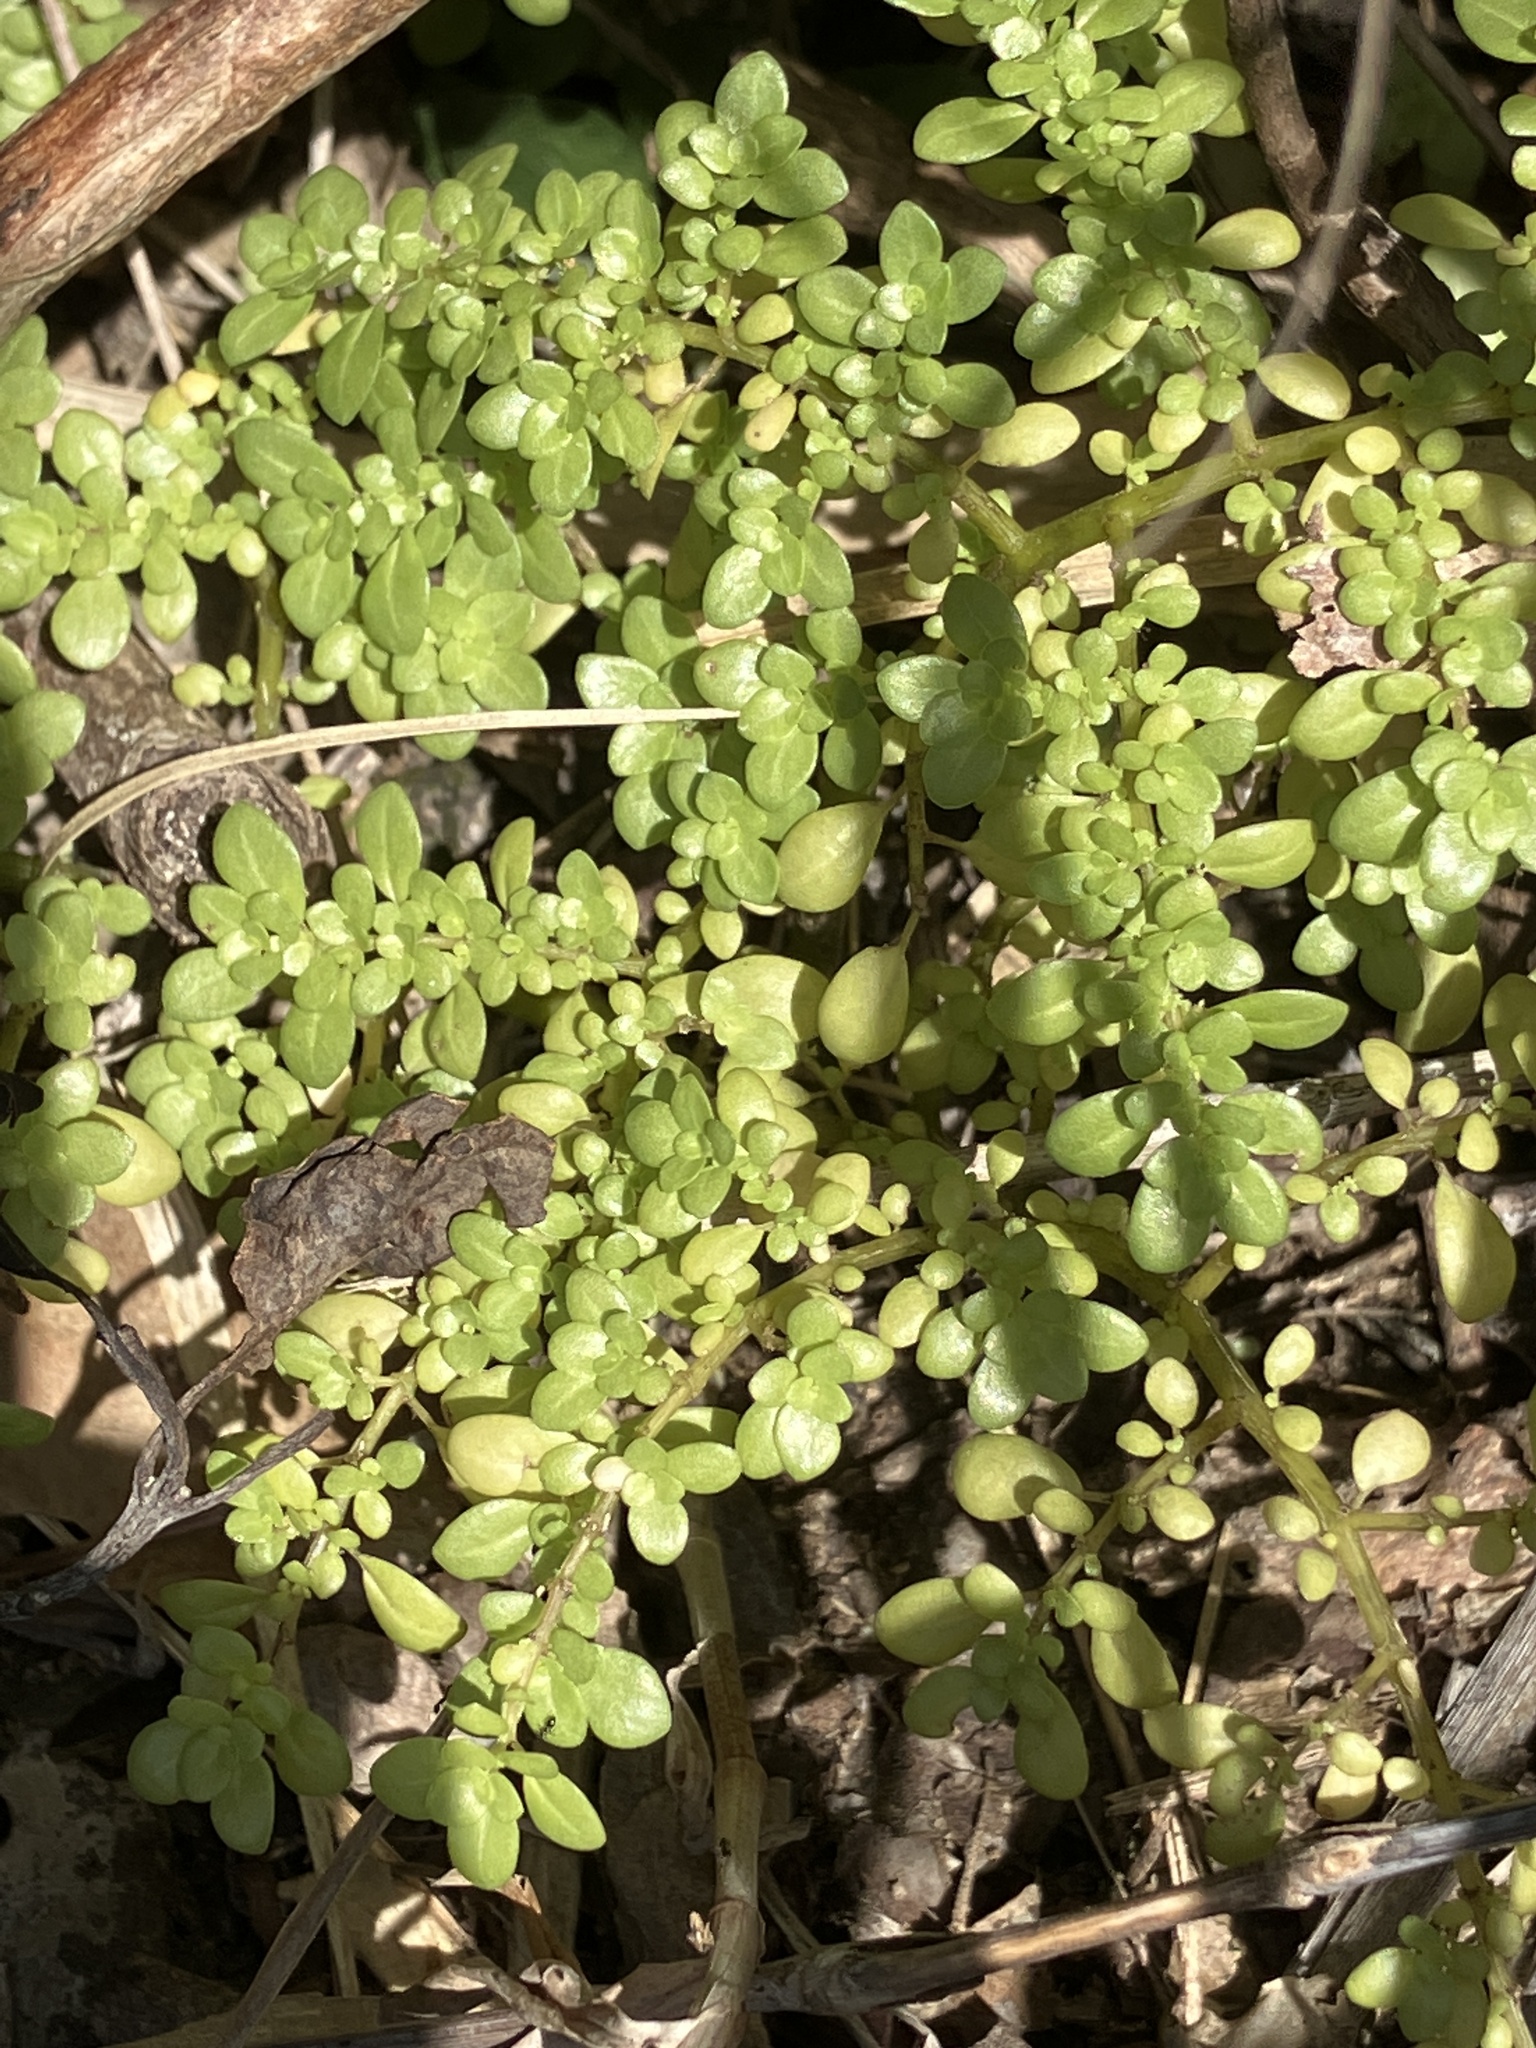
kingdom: Plantae
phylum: Tracheophyta
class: Magnoliopsida
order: Rosales
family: Urticaceae
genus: Pilea
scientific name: Pilea microphylla
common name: Artillery-plant
